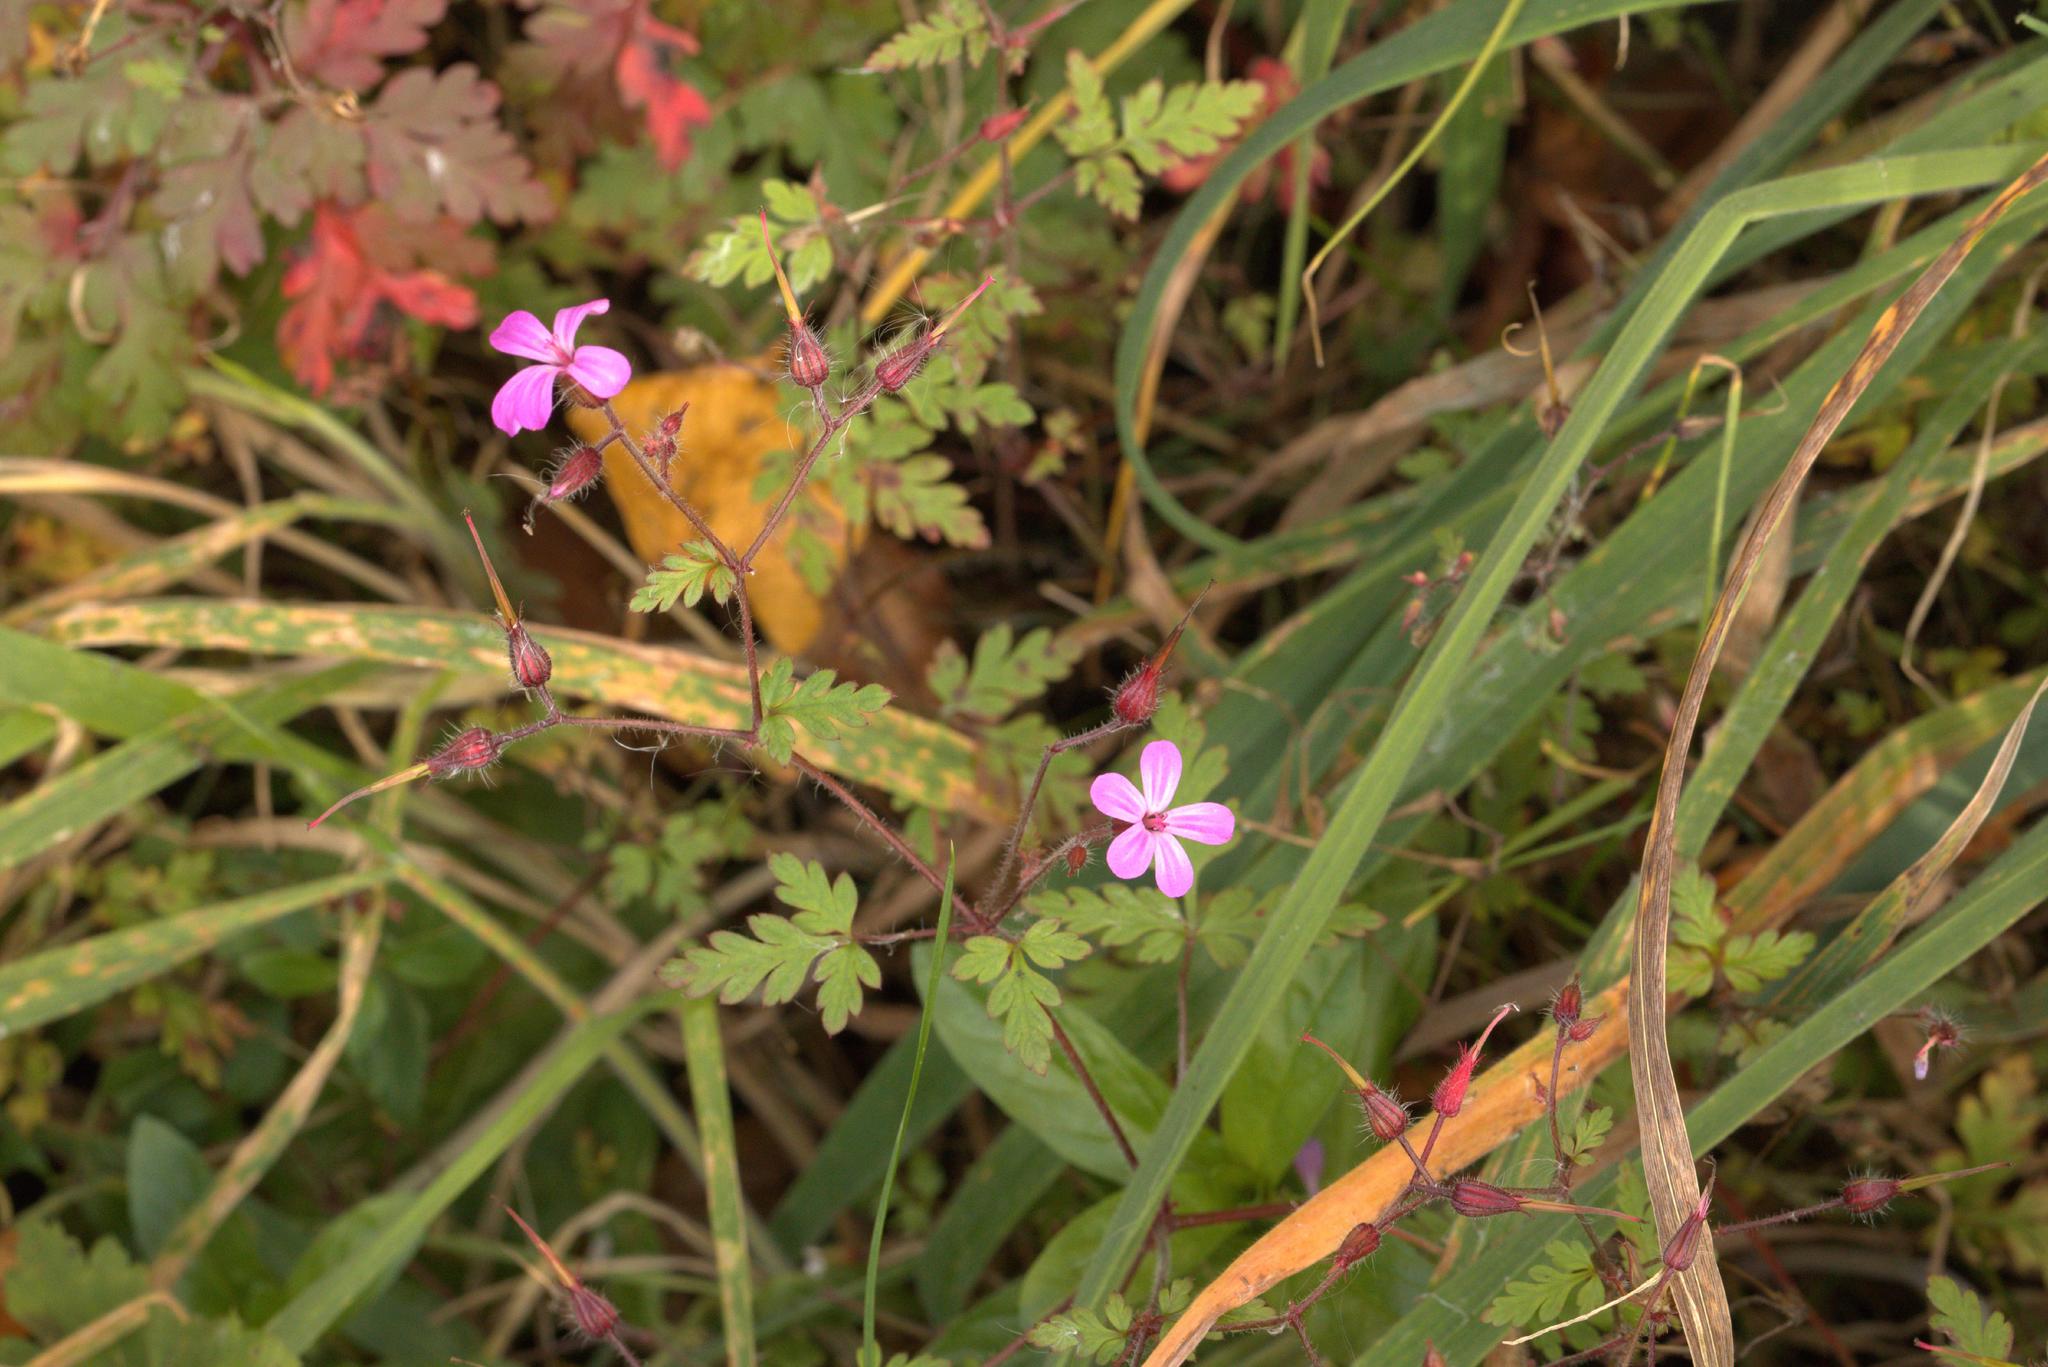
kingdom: Plantae
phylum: Tracheophyta
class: Magnoliopsida
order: Geraniales
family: Geraniaceae
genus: Geranium
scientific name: Geranium robertianum
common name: Herb-robert
